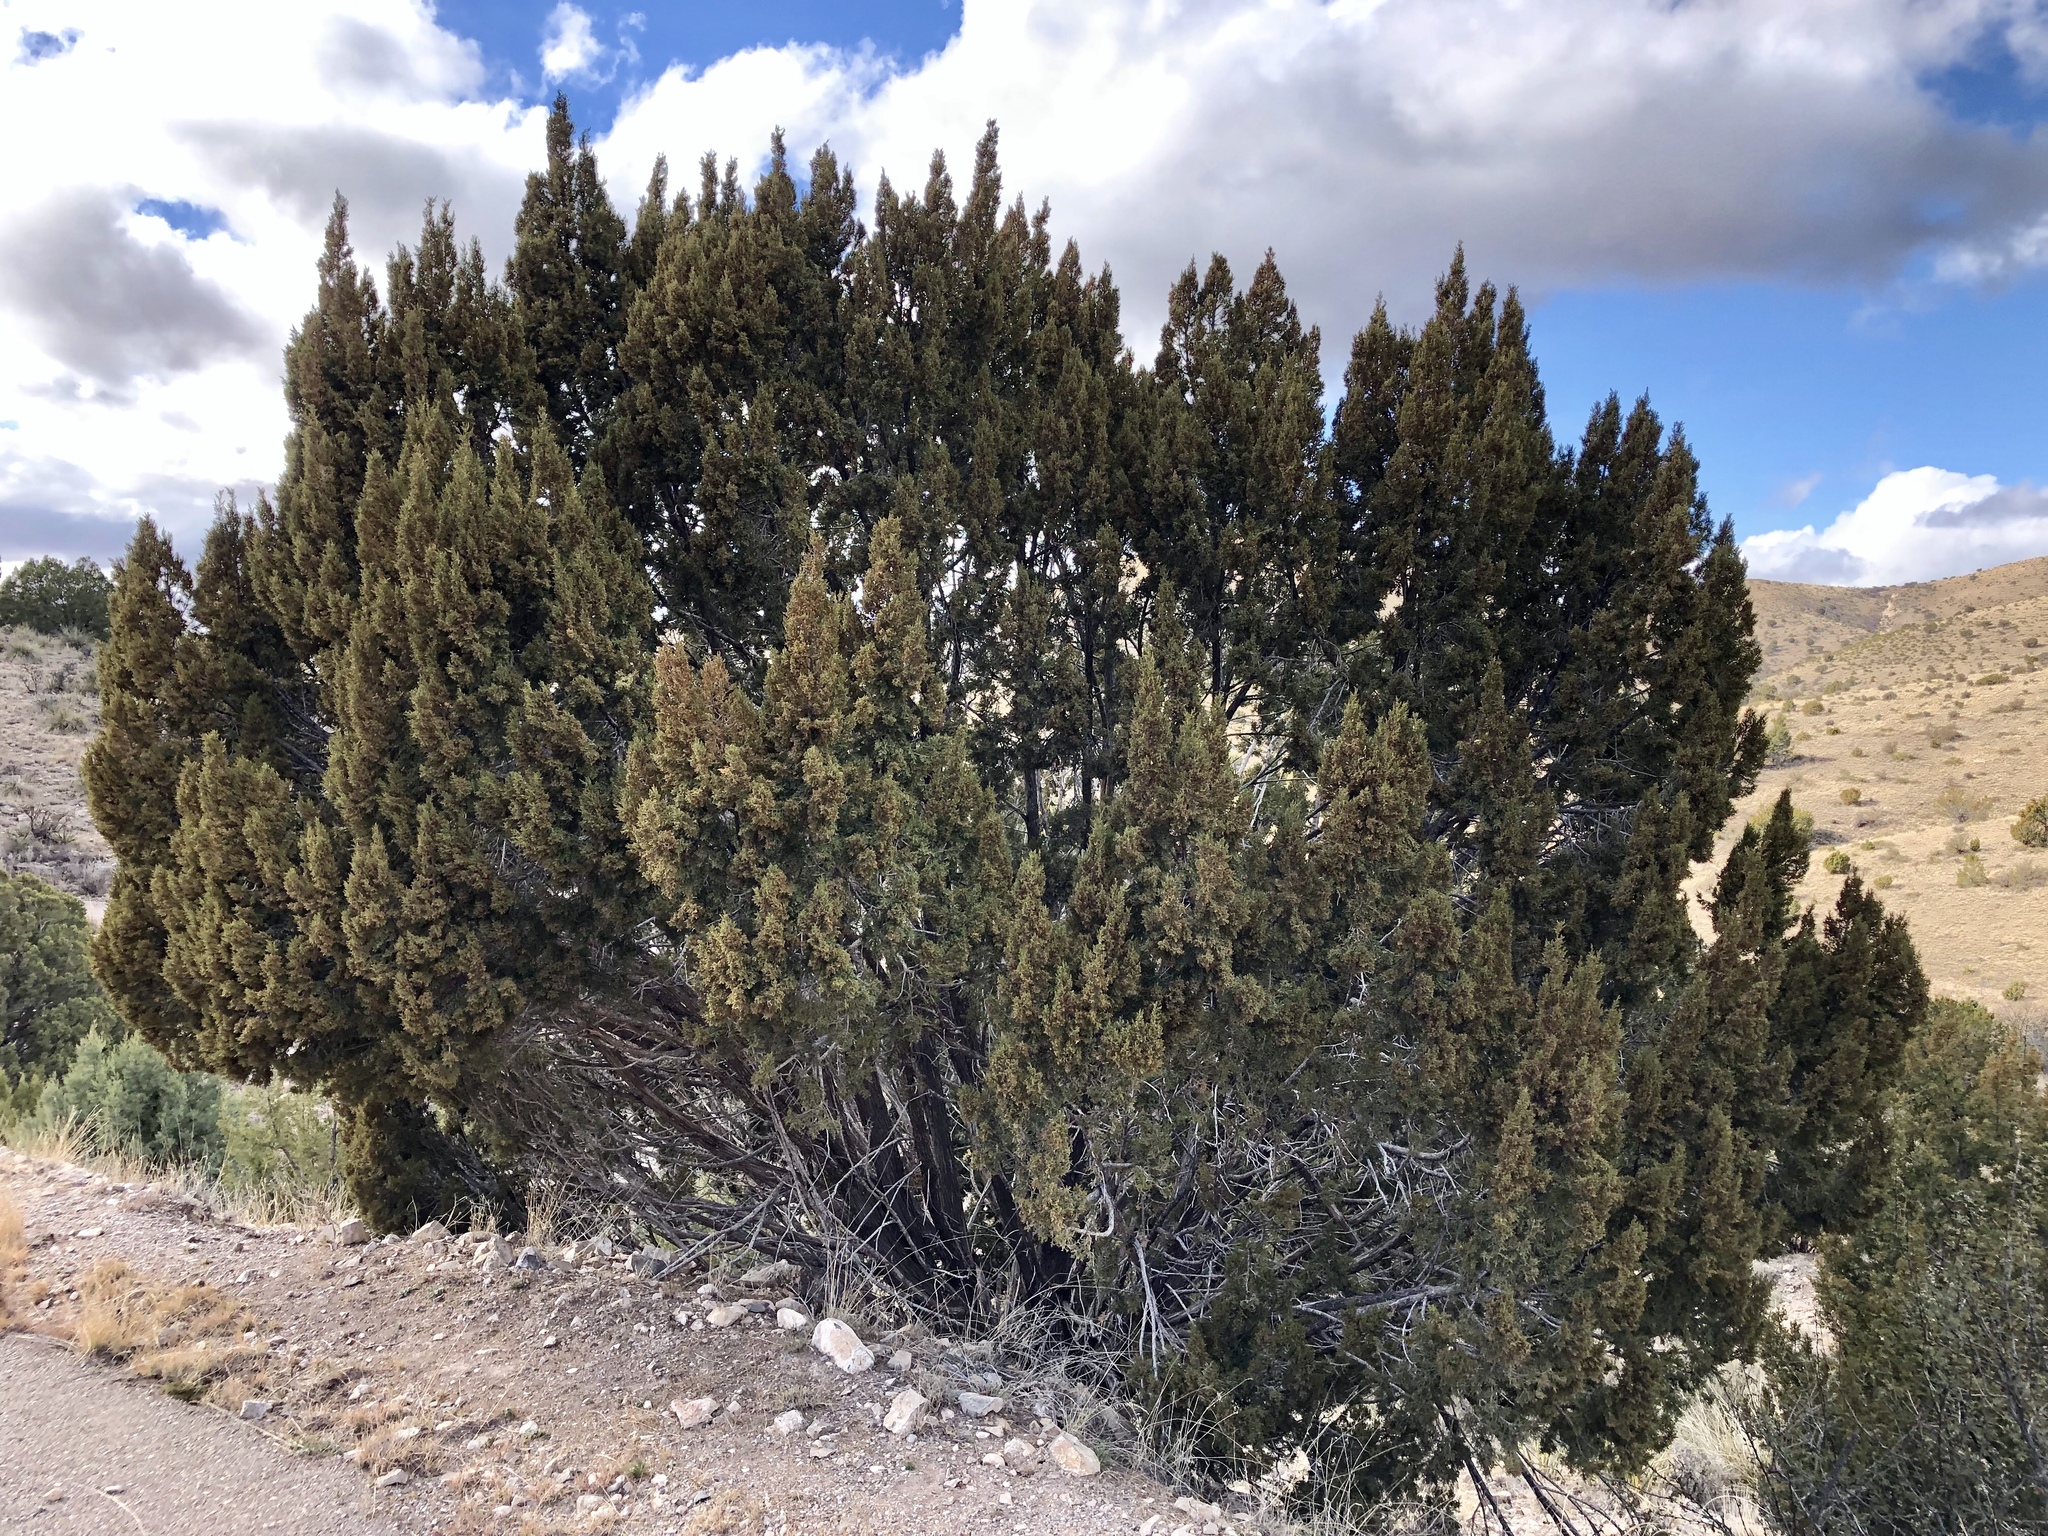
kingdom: Plantae
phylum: Tracheophyta
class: Pinopsida
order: Pinales
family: Cupressaceae
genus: Juniperus
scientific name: Juniperus monosperma
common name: One-seed juniper
